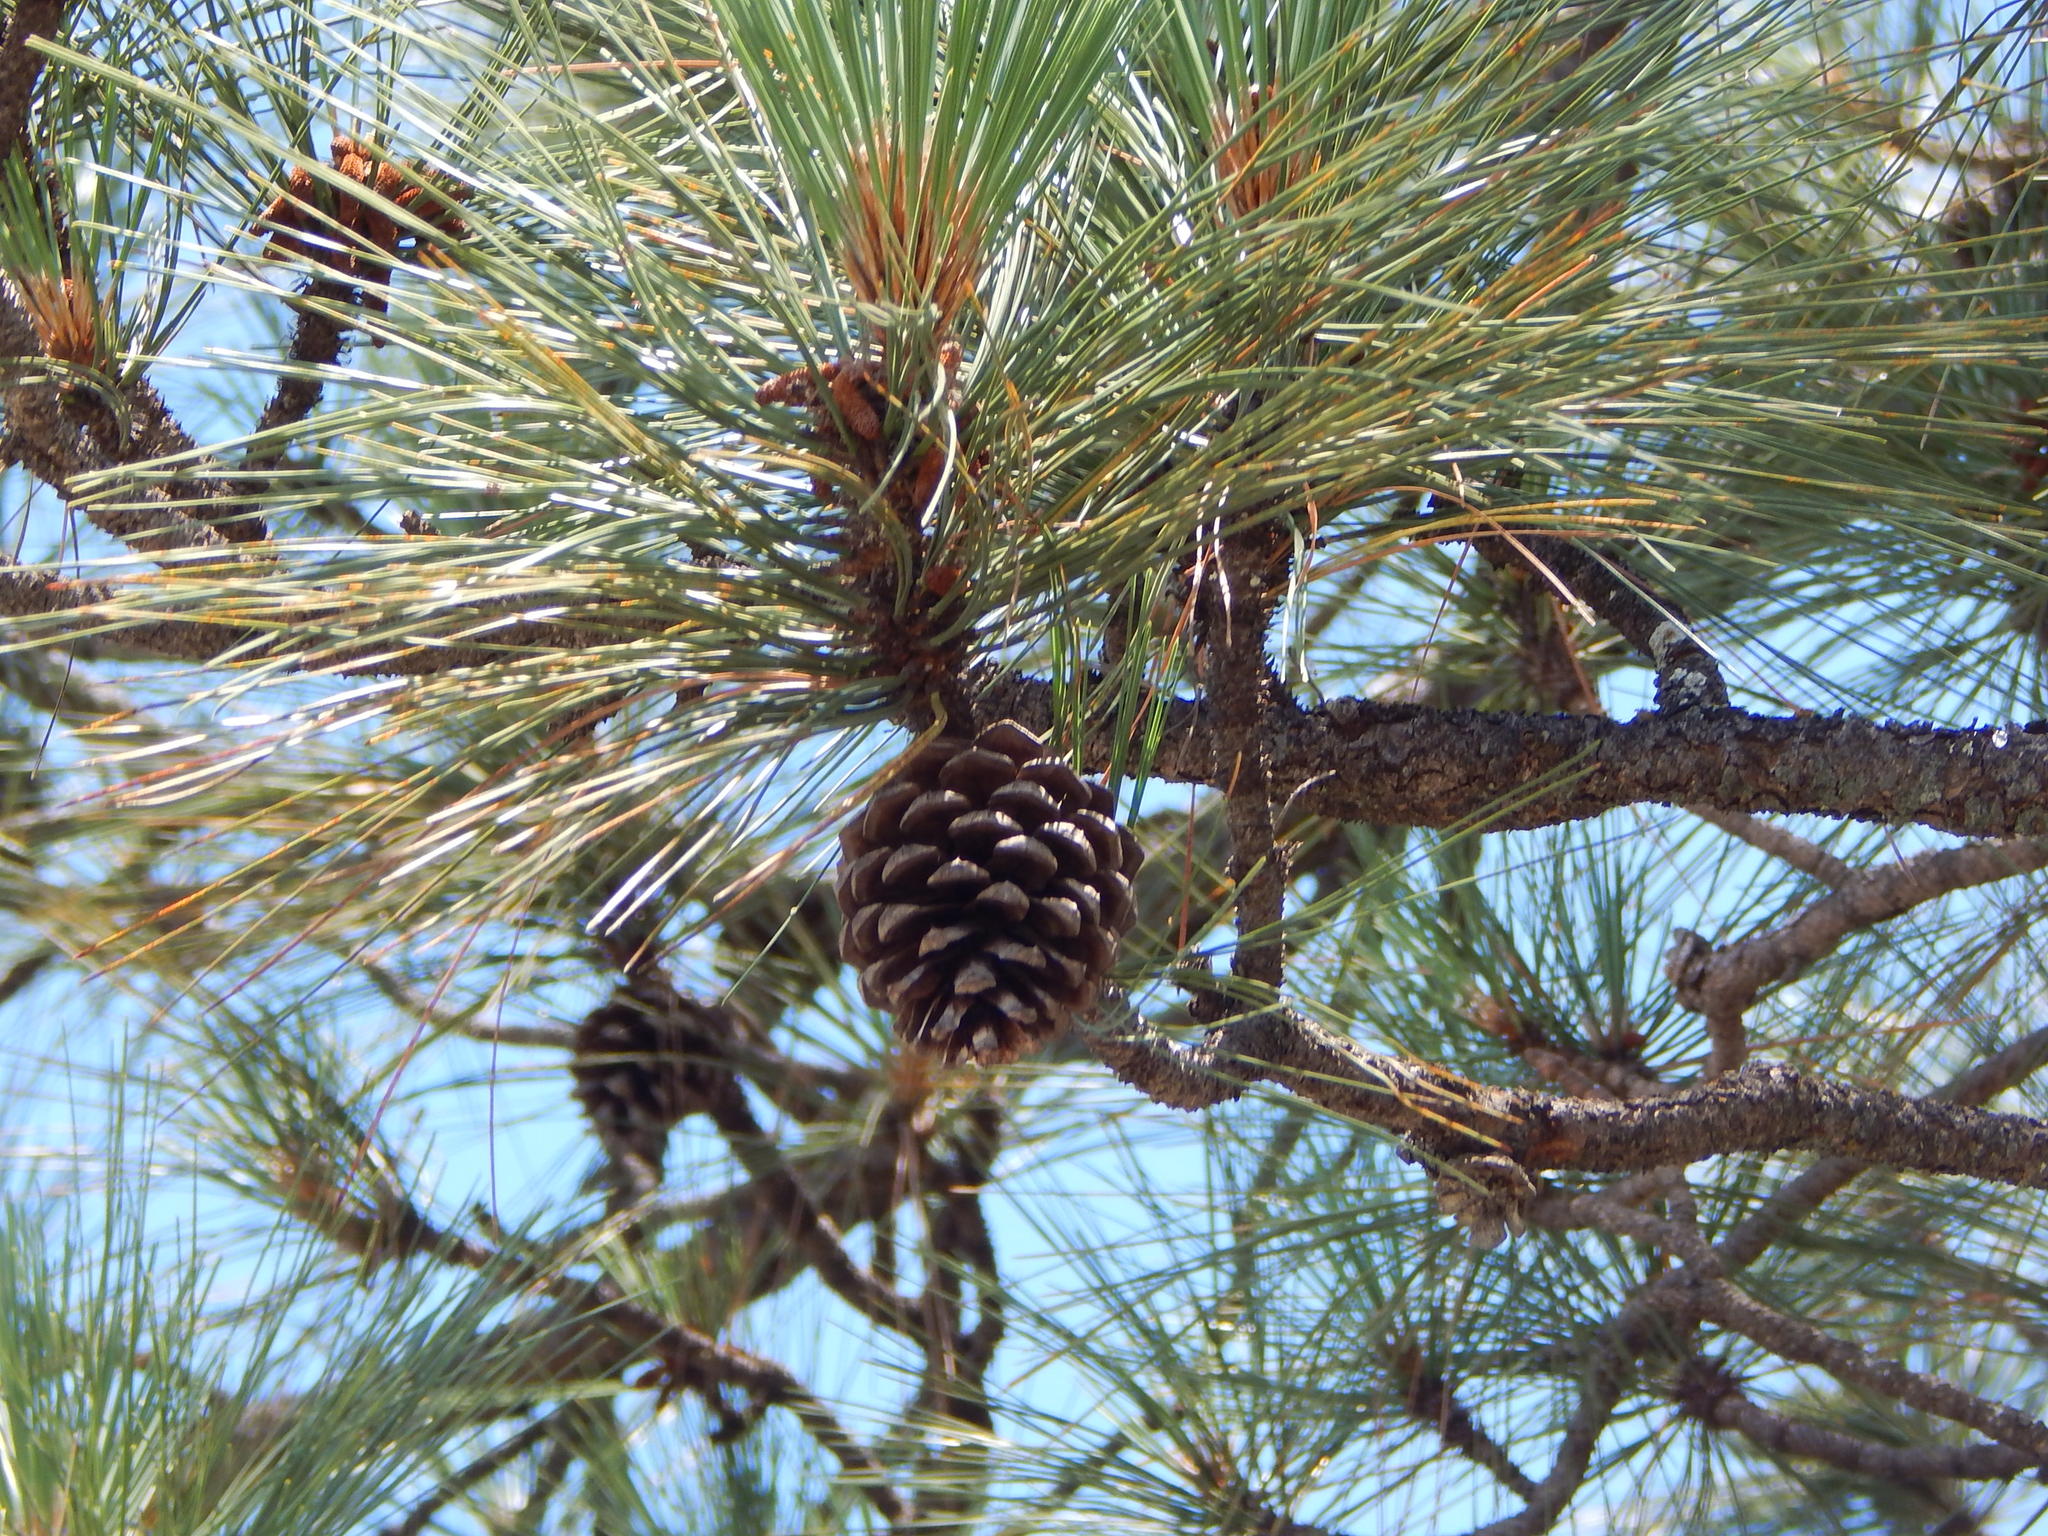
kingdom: Plantae
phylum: Tracheophyta
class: Pinopsida
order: Pinales
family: Pinaceae
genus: Pinus
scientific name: Pinus arizonica
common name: Arizona pine
